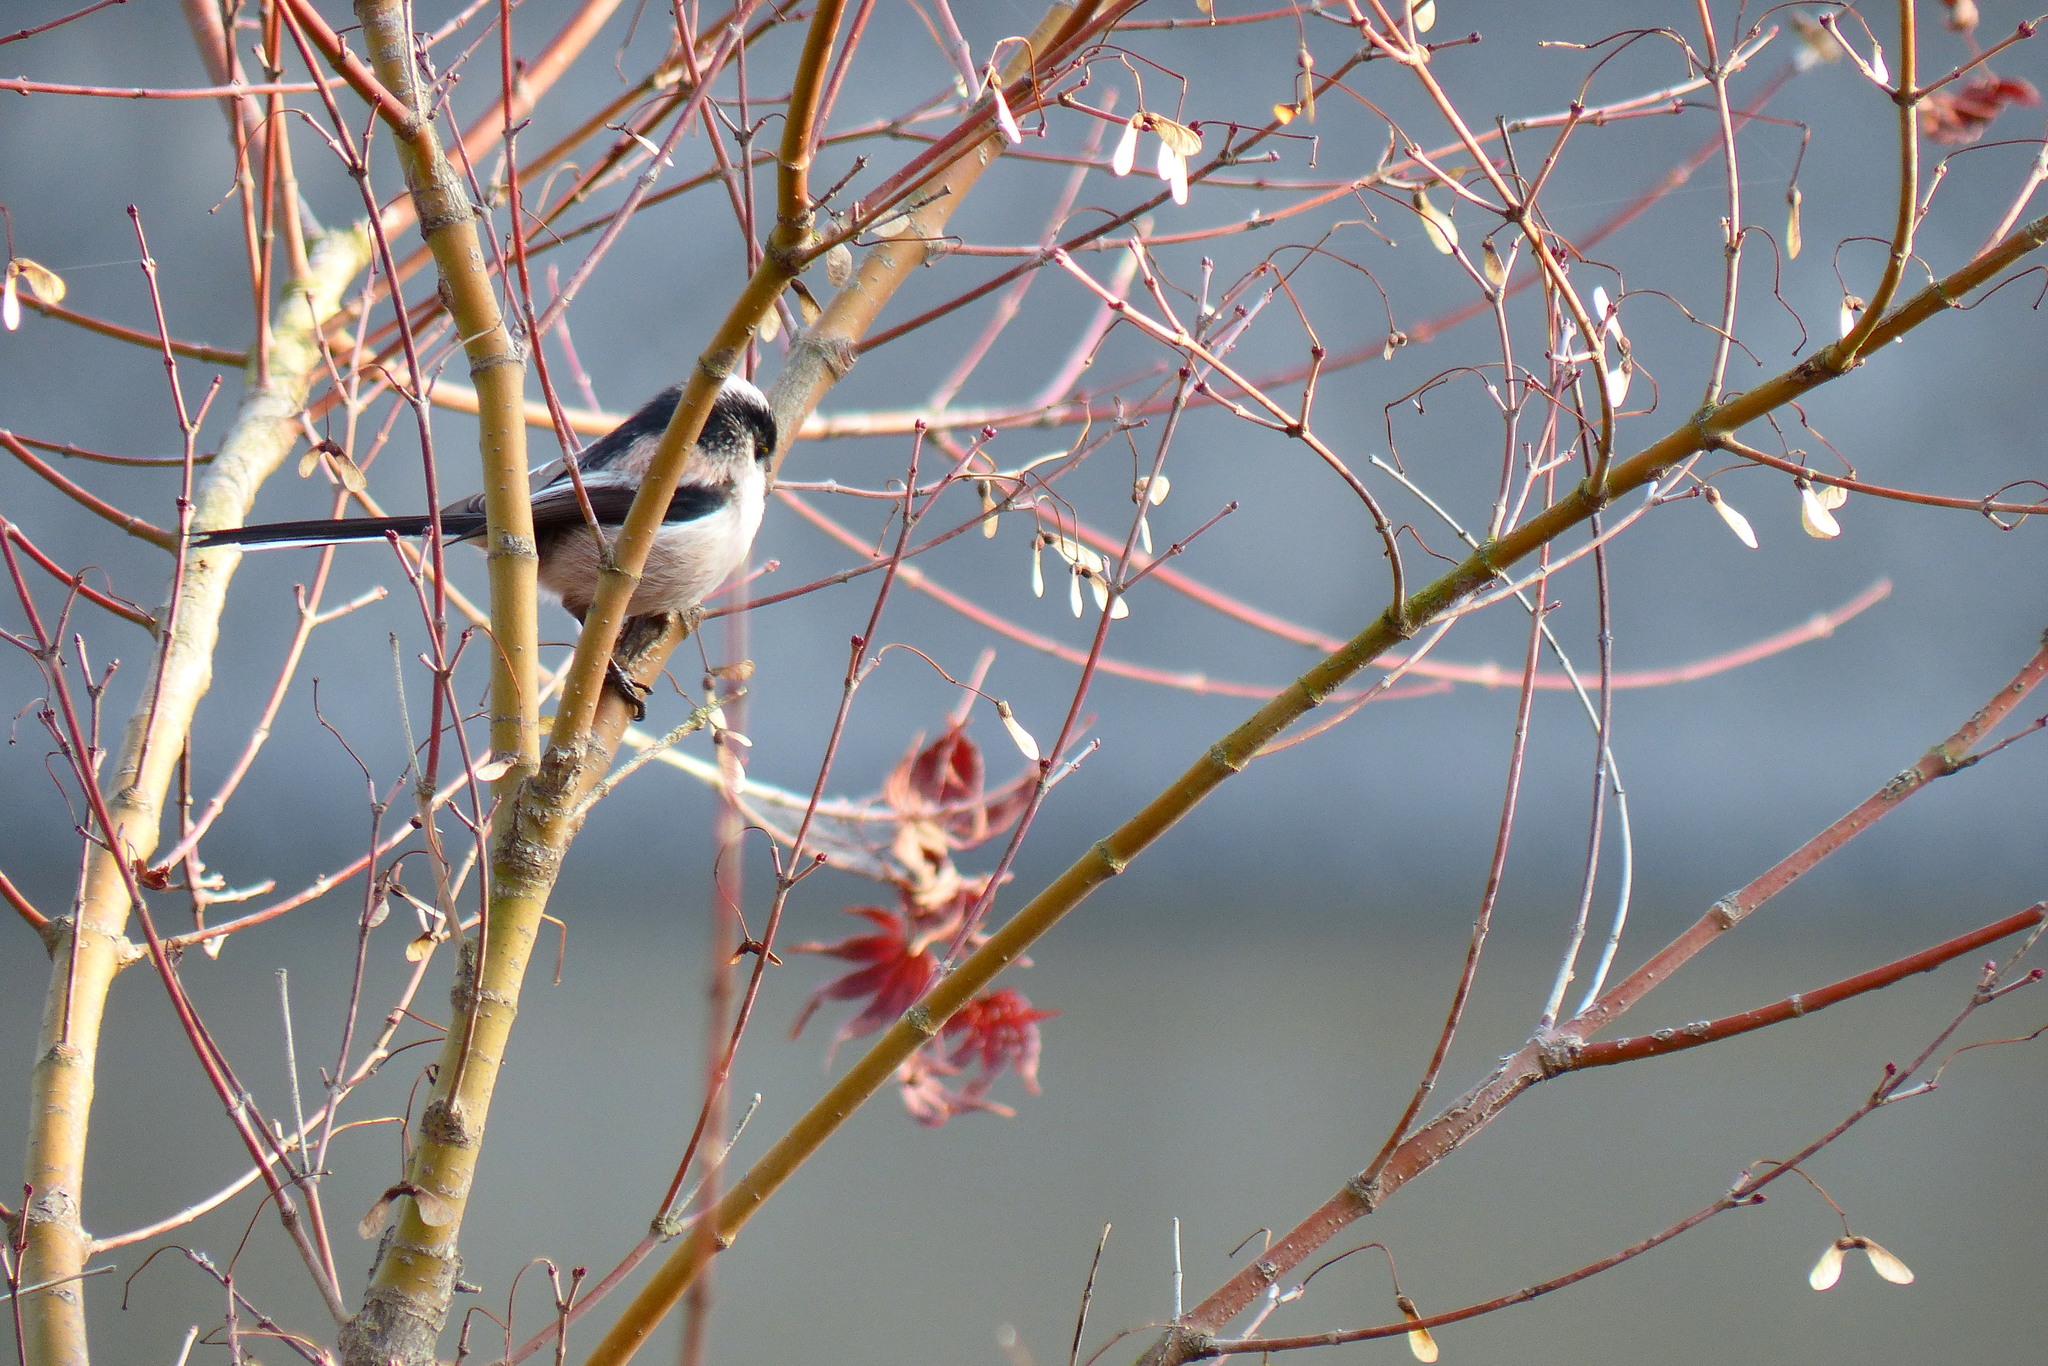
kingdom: Animalia
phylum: Chordata
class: Aves
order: Passeriformes
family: Aegithalidae
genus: Aegithalos
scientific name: Aegithalos caudatus
